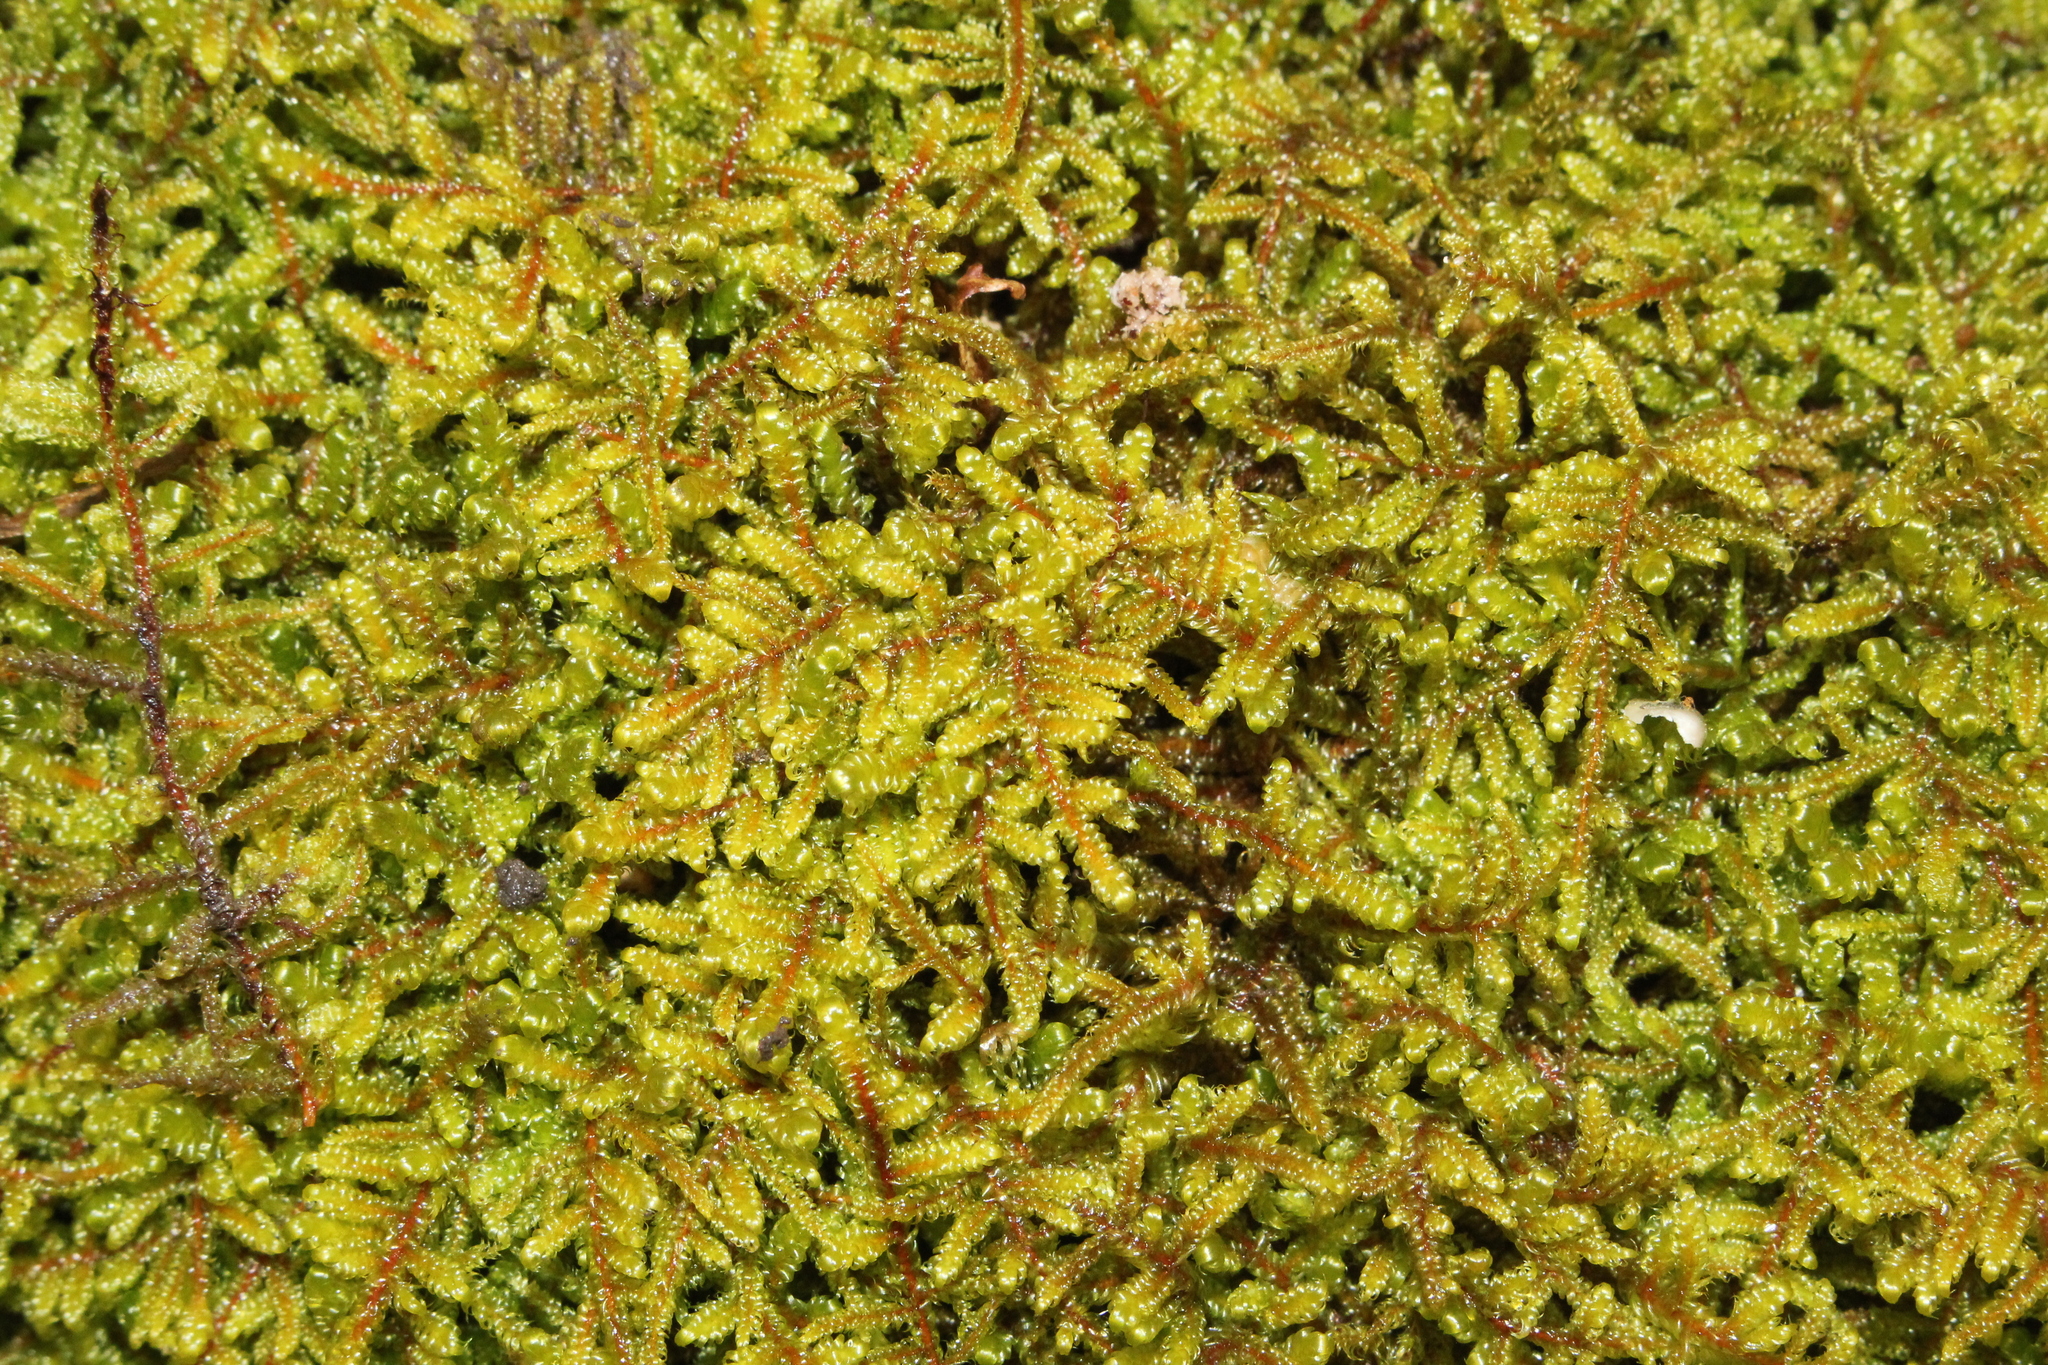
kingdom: Plantae
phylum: Bryophyta
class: Bryopsida
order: Hypnales
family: Callicladiaceae
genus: Callicladium
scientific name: Callicladium imponens
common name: Brocade moss
